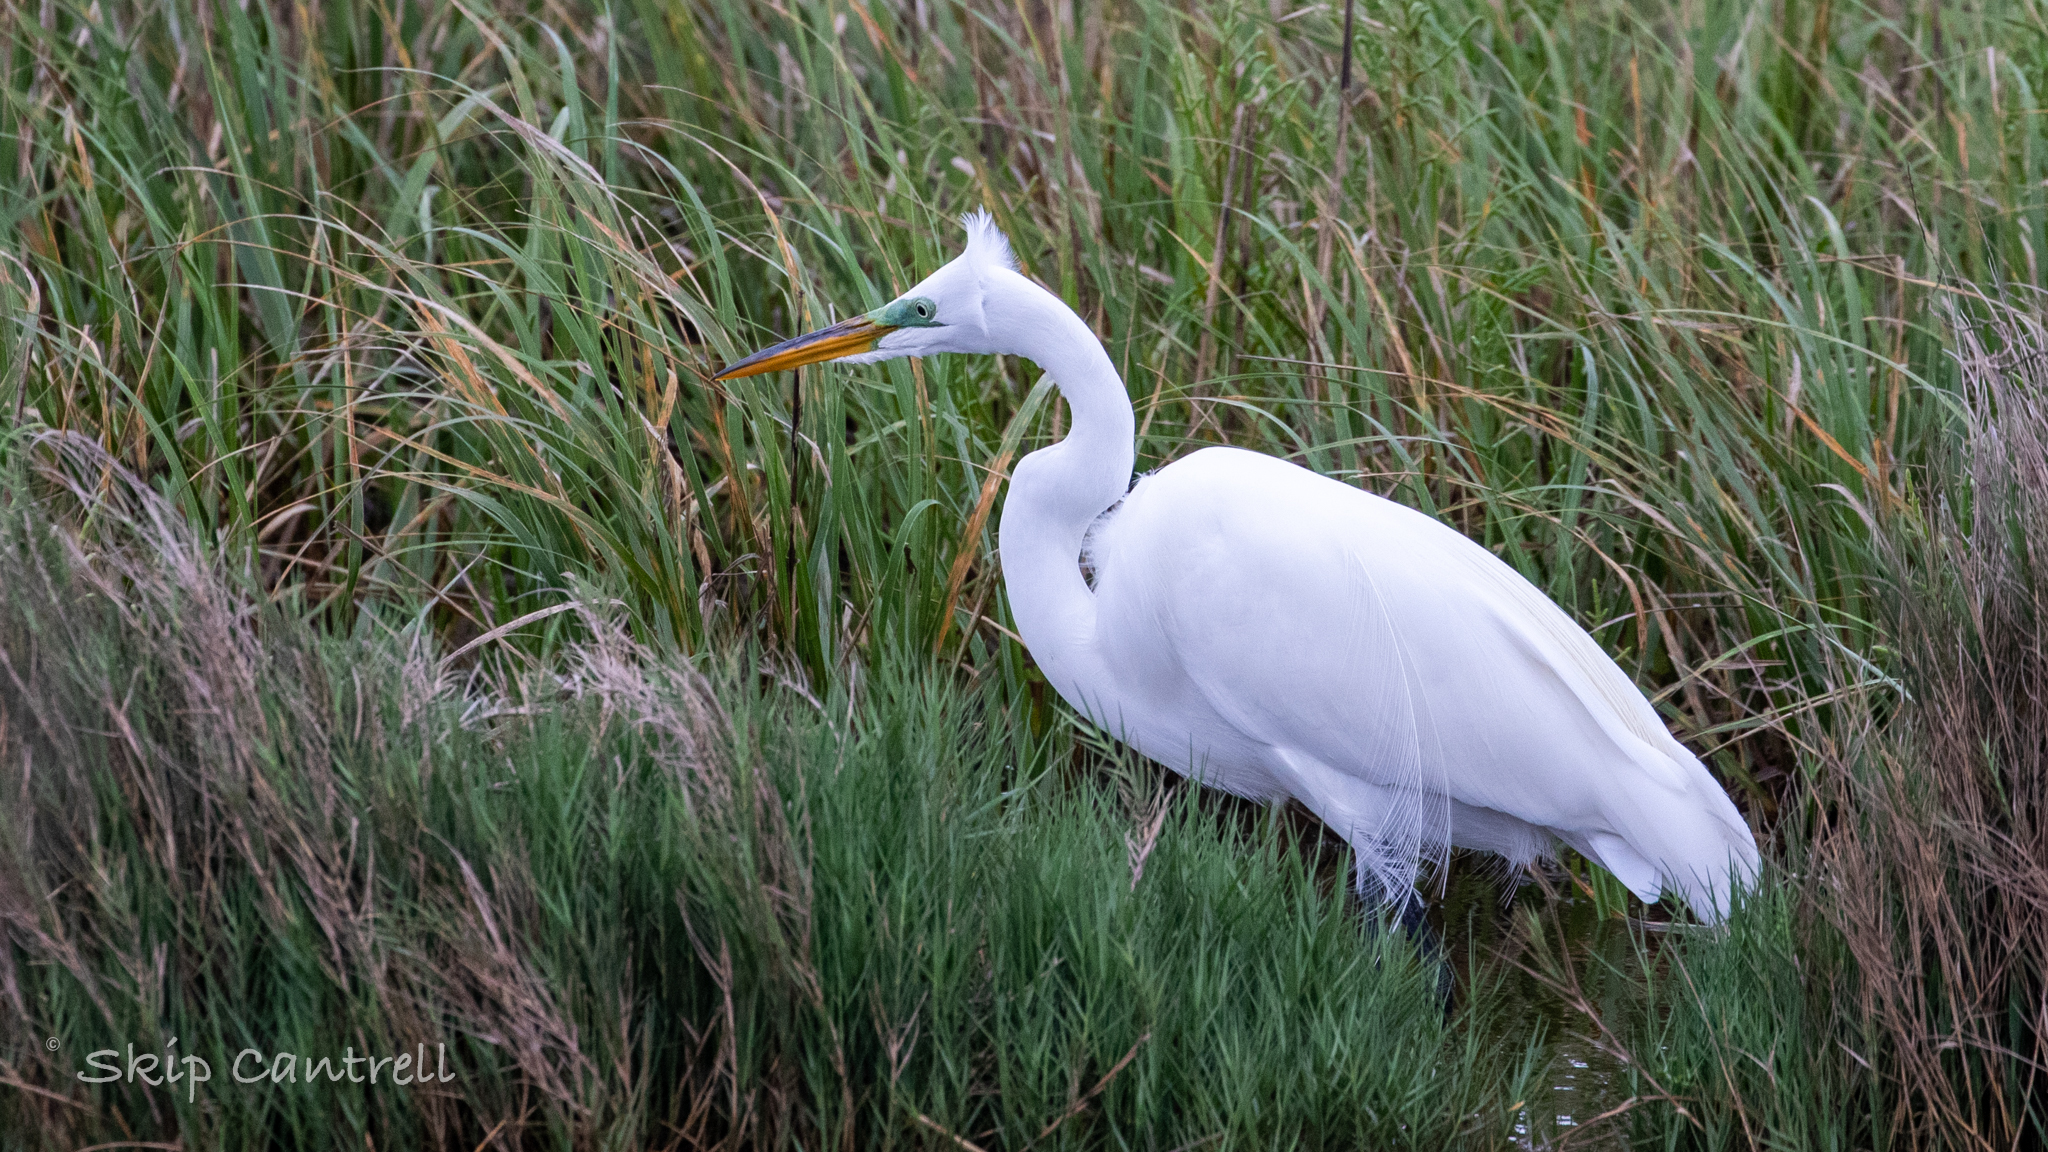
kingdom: Animalia
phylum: Chordata
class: Aves
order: Pelecaniformes
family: Ardeidae
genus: Ardea
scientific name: Ardea alba
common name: Great egret
